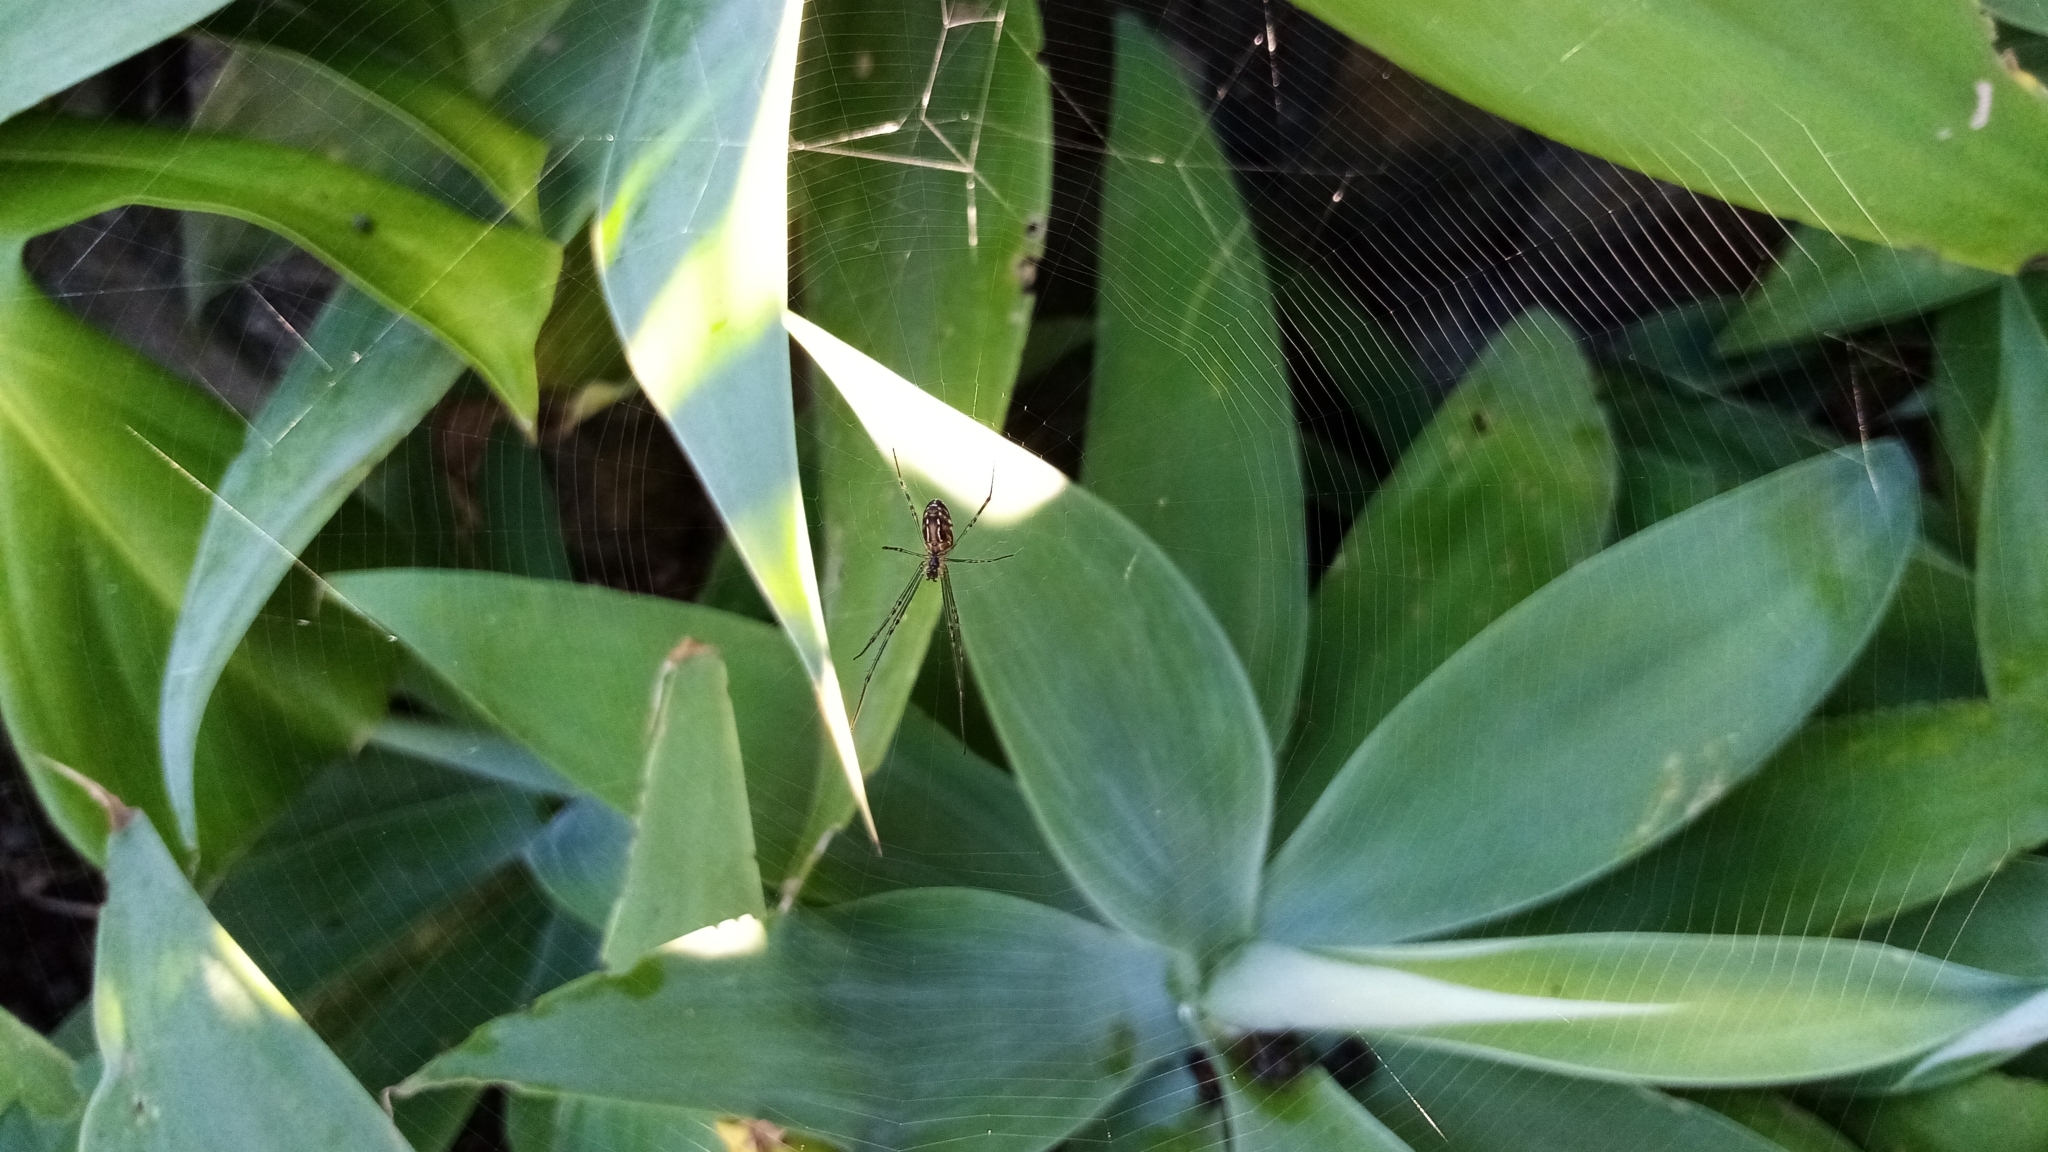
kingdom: Animalia
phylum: Arthropoda
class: Arachnida
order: Araneae
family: Tetragnathidae
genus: Leucauge
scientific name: Leucauge dromedaria
